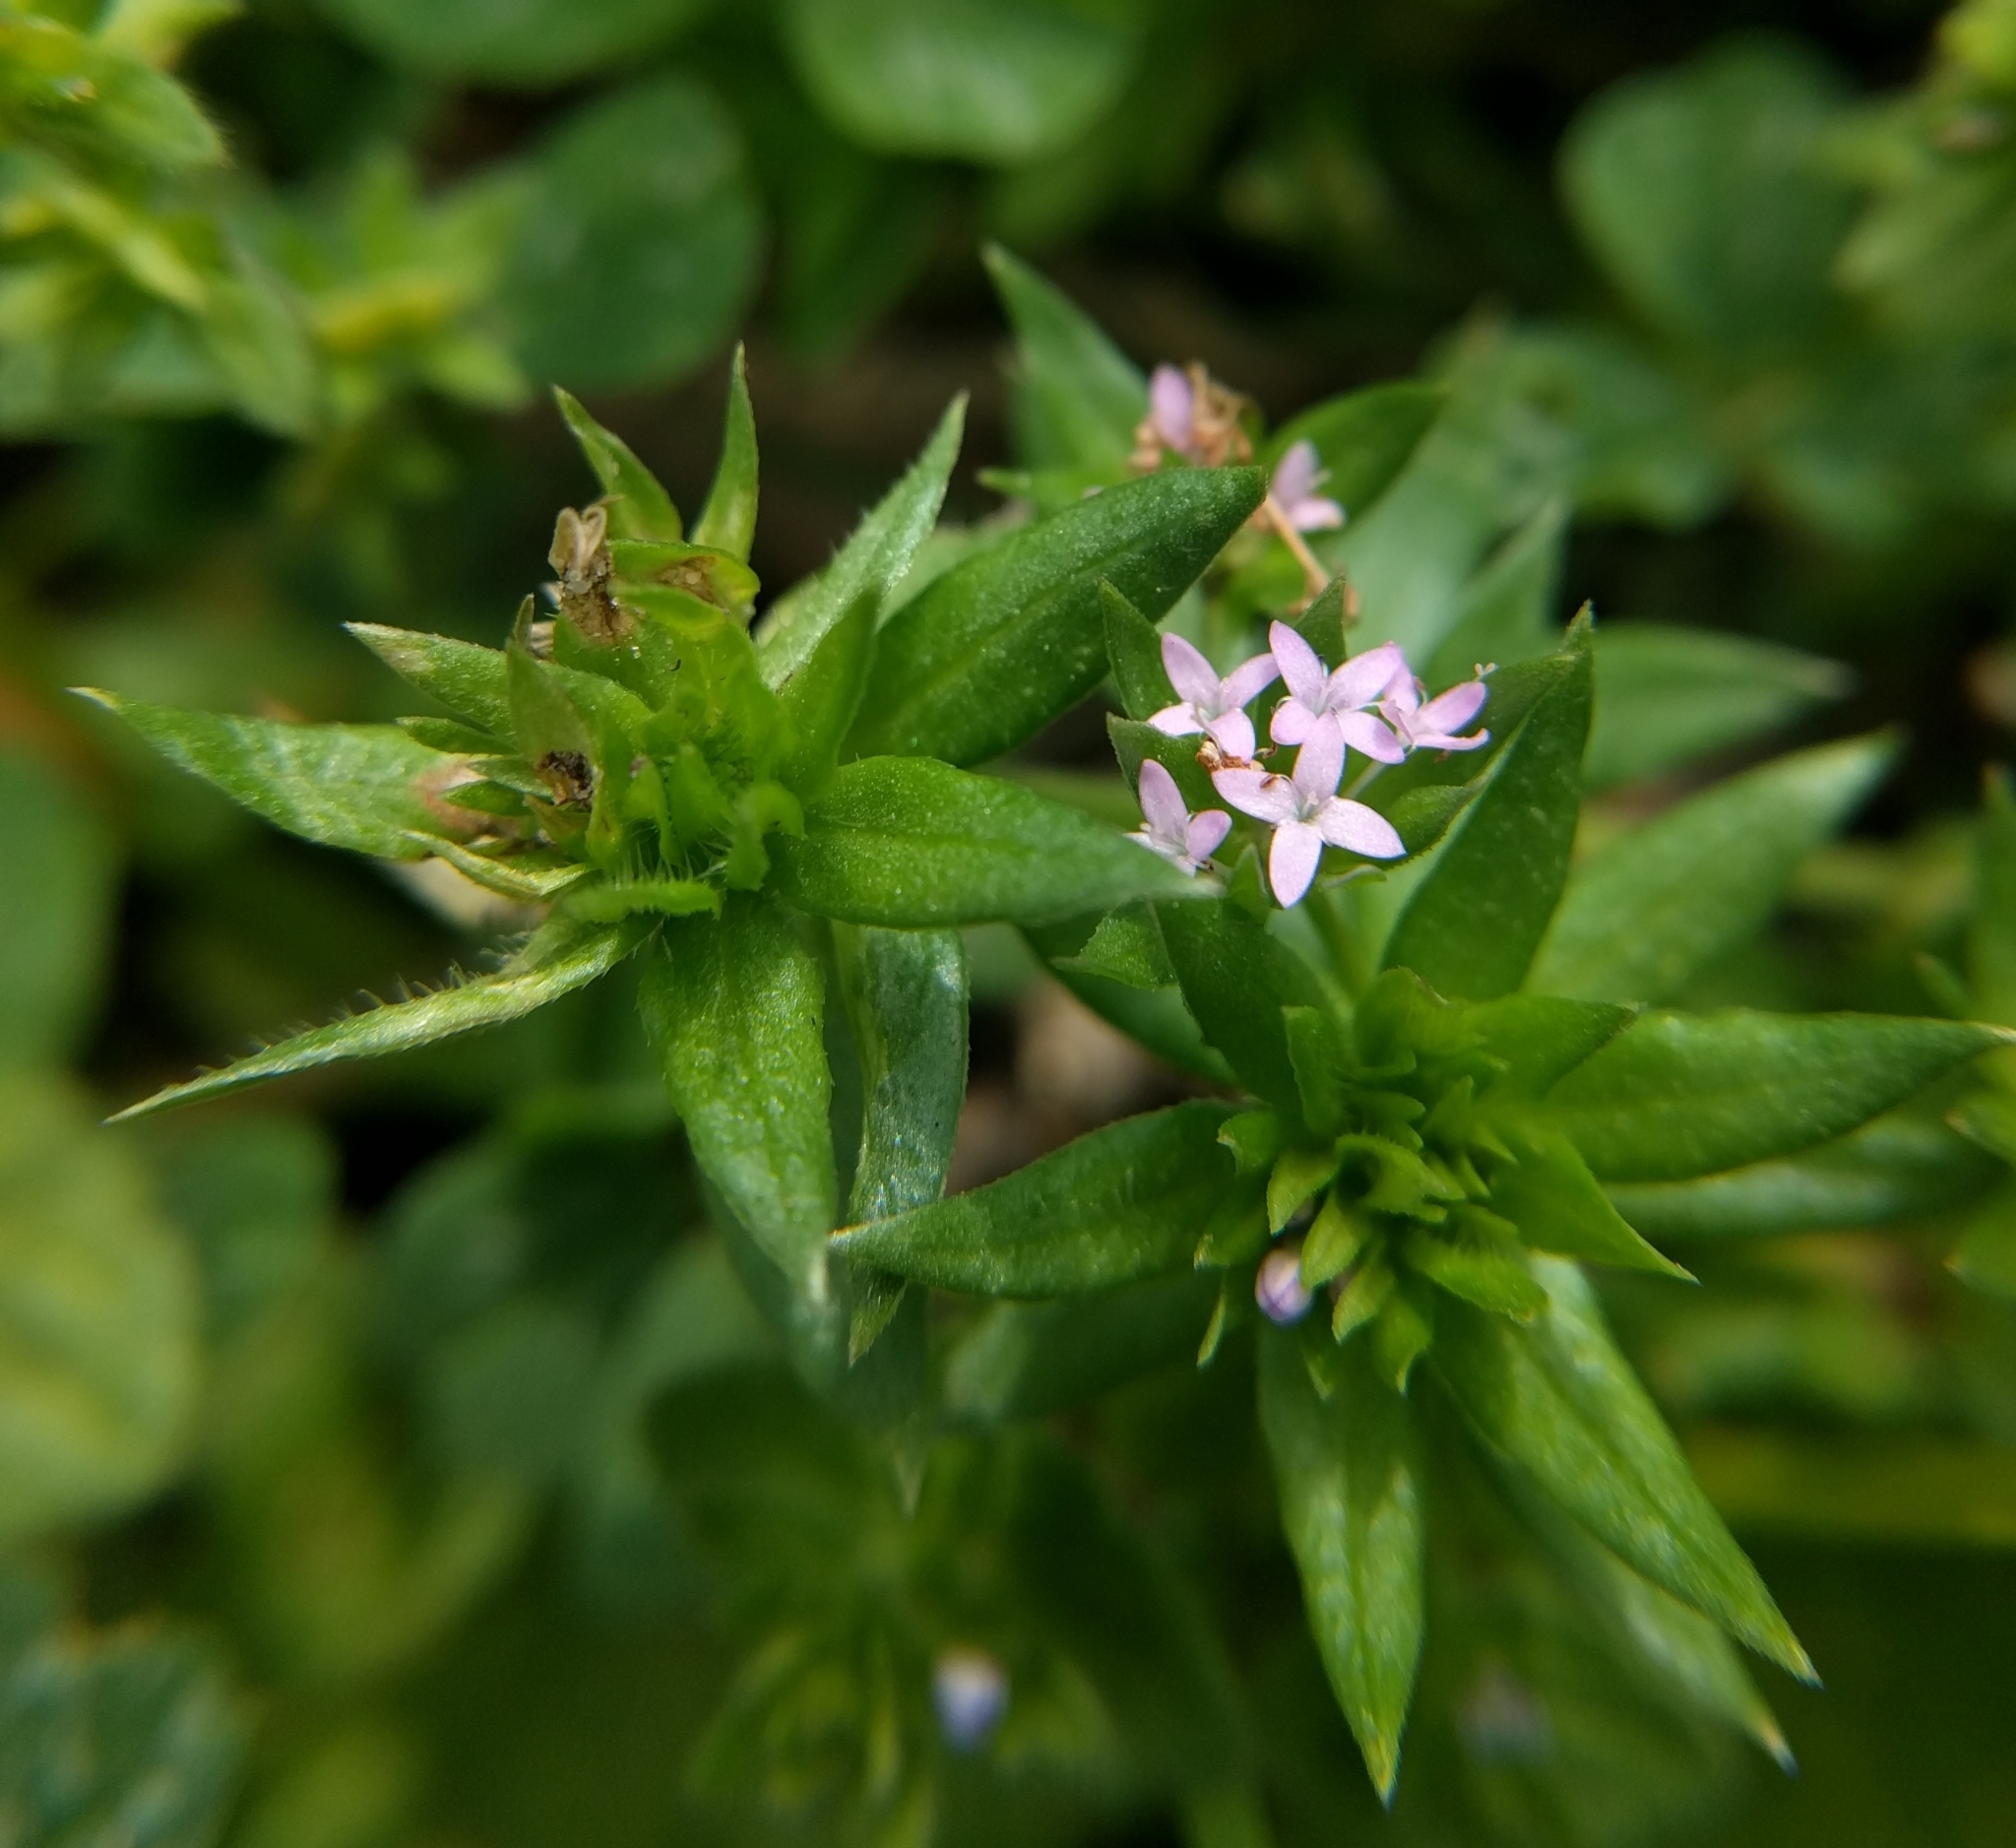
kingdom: Plantae
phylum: Tracheophyta
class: Magnoliopsida
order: Gentianales
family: Rubiaceae
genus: Sherardia
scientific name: Sherardia arvensis
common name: Field madder
